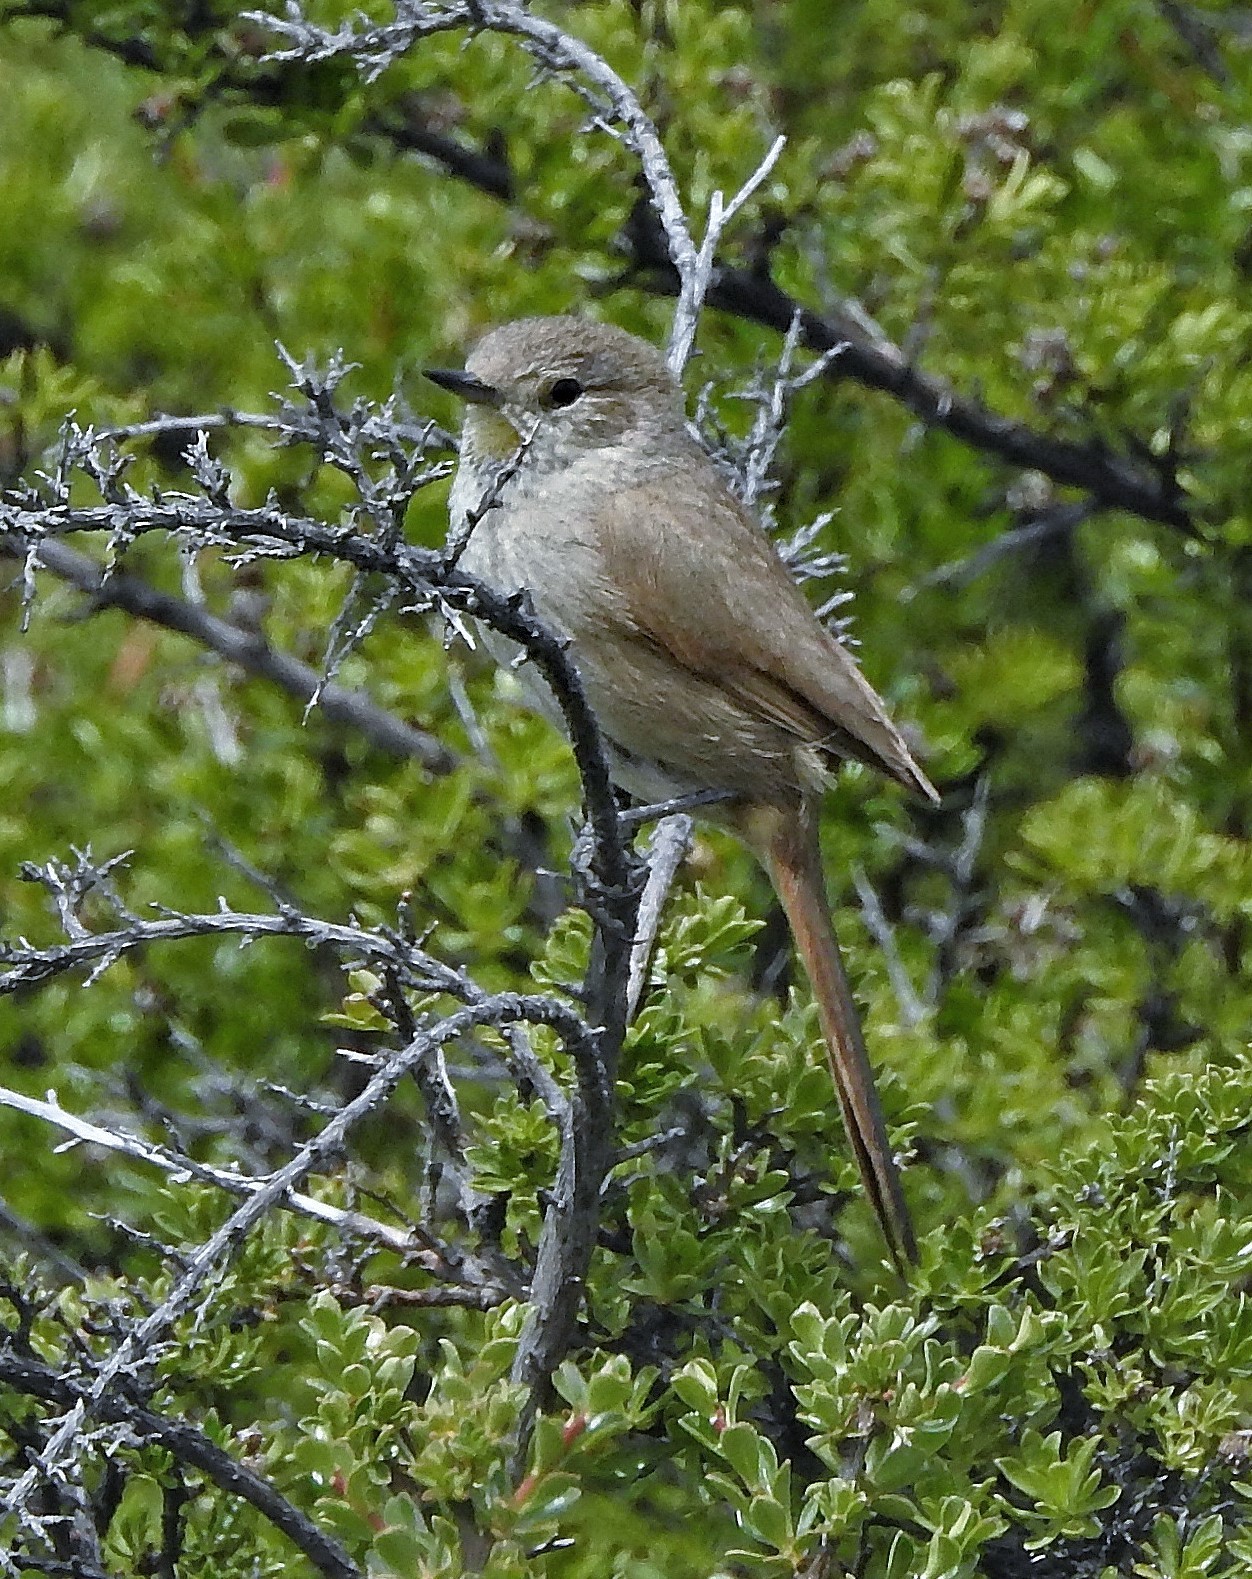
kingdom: Animalia
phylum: Chordata
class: Aves
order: Passeriformes
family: Furnariidae
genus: Asthenes
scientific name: Asthenes pyrrholeuca
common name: Sharp-billed canastero
